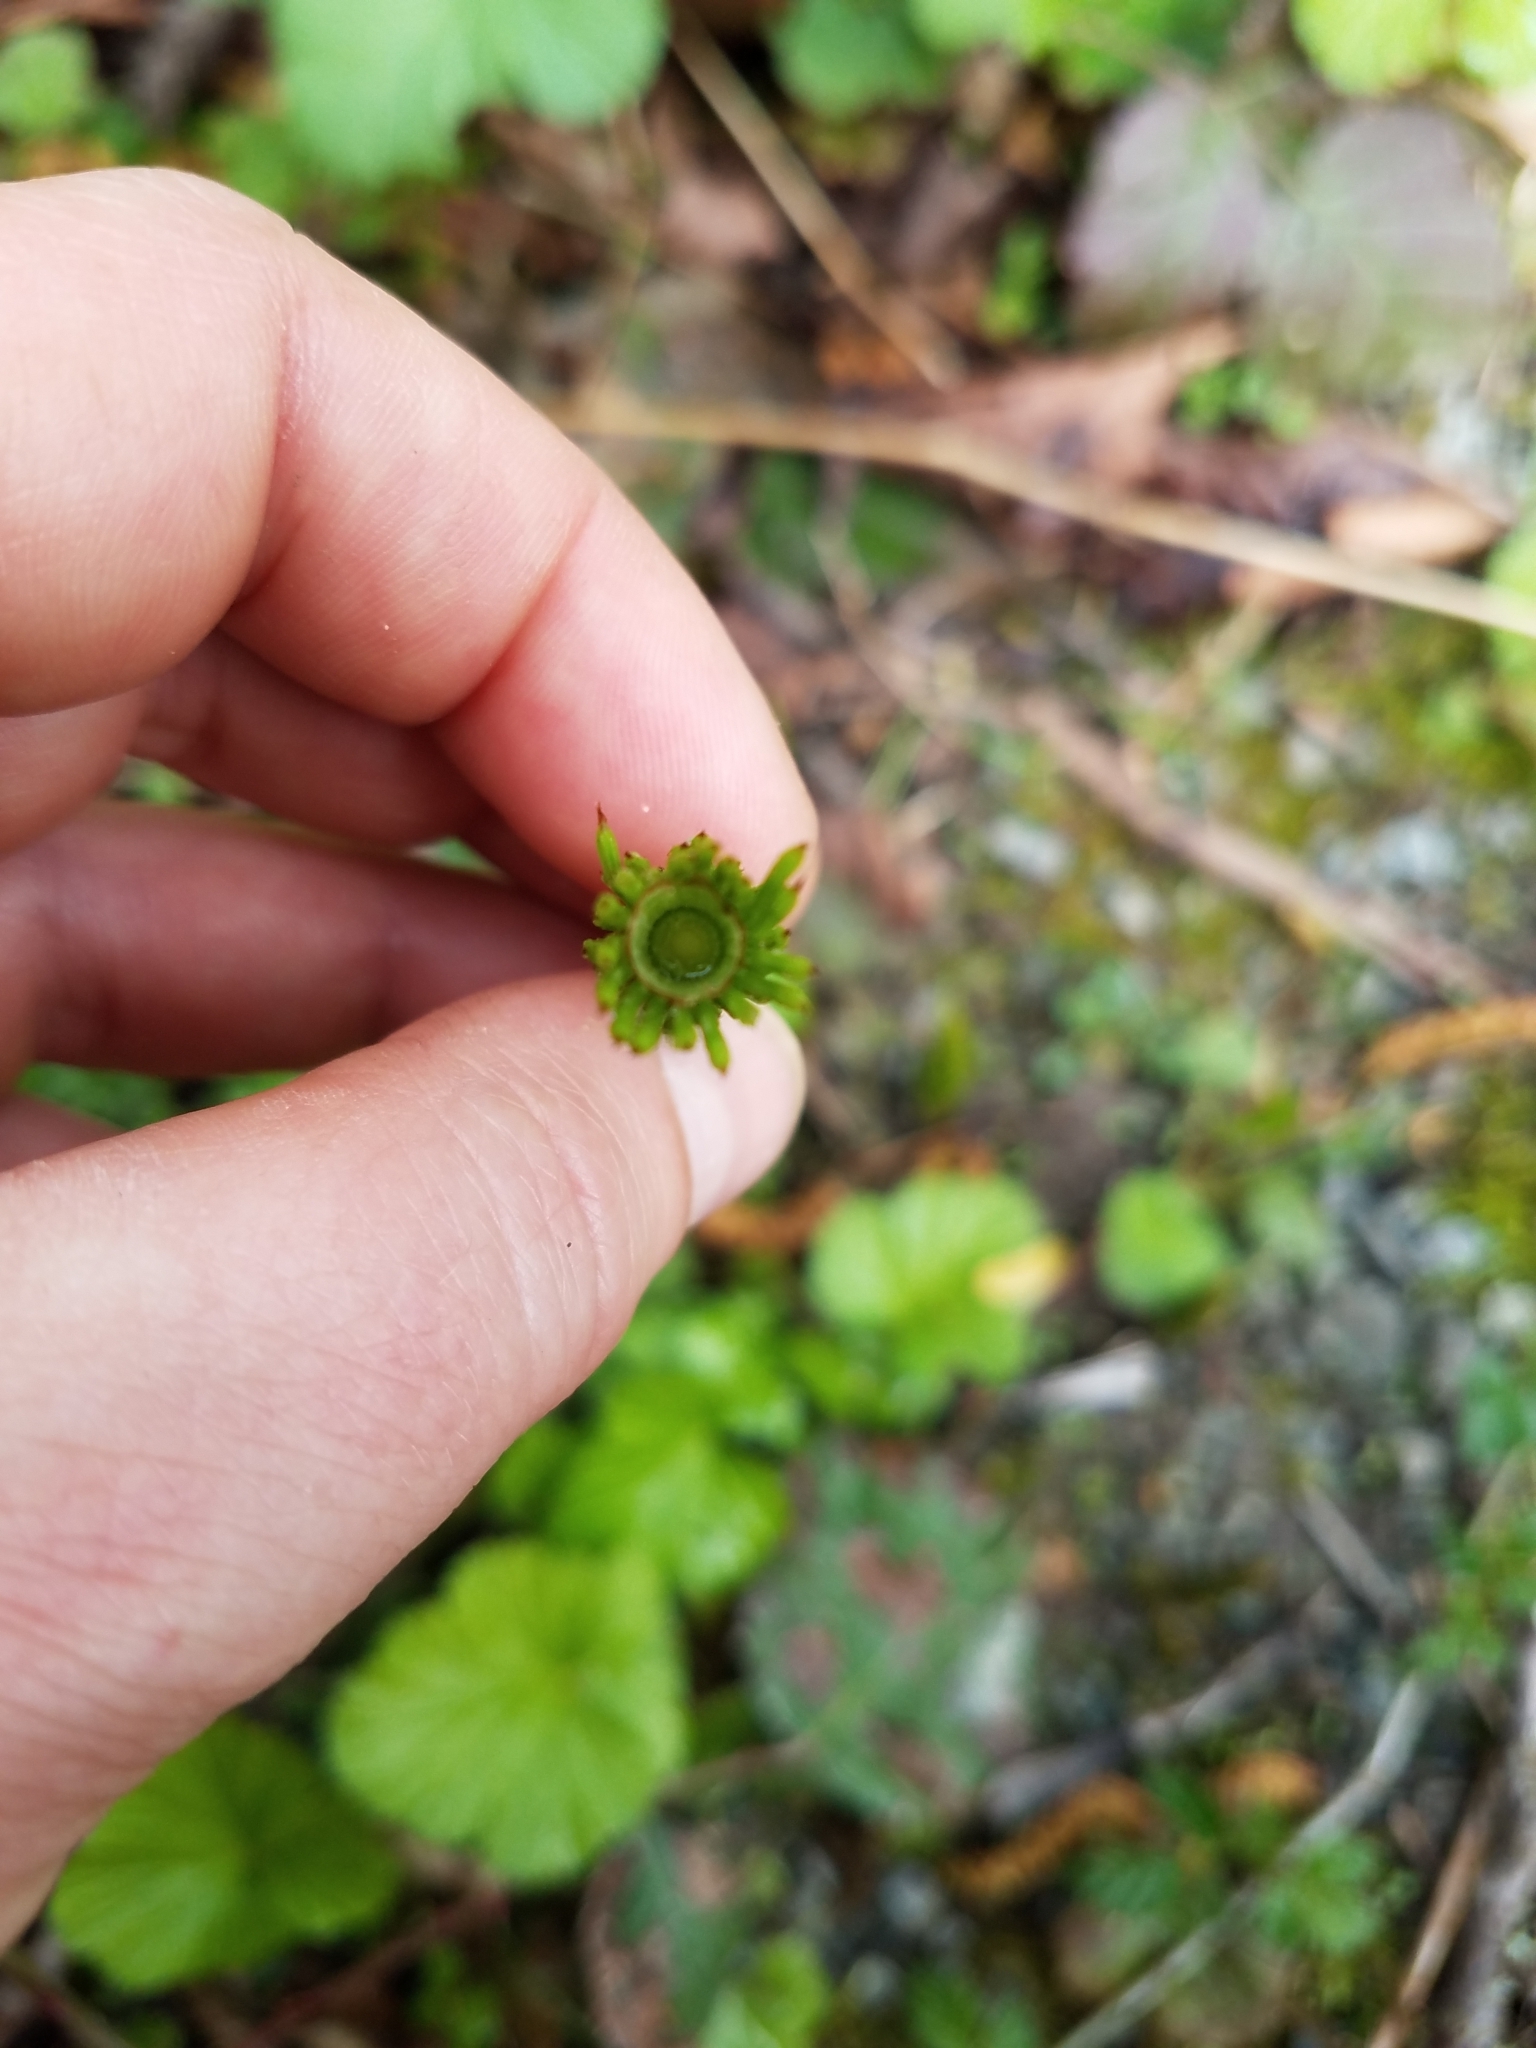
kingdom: Plantae
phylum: Tracheophyta
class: Polypodiopsida
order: Equisetales
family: Equisetaceae
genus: Equisetum
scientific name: Equisetum telmateia
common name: Great horsetail
